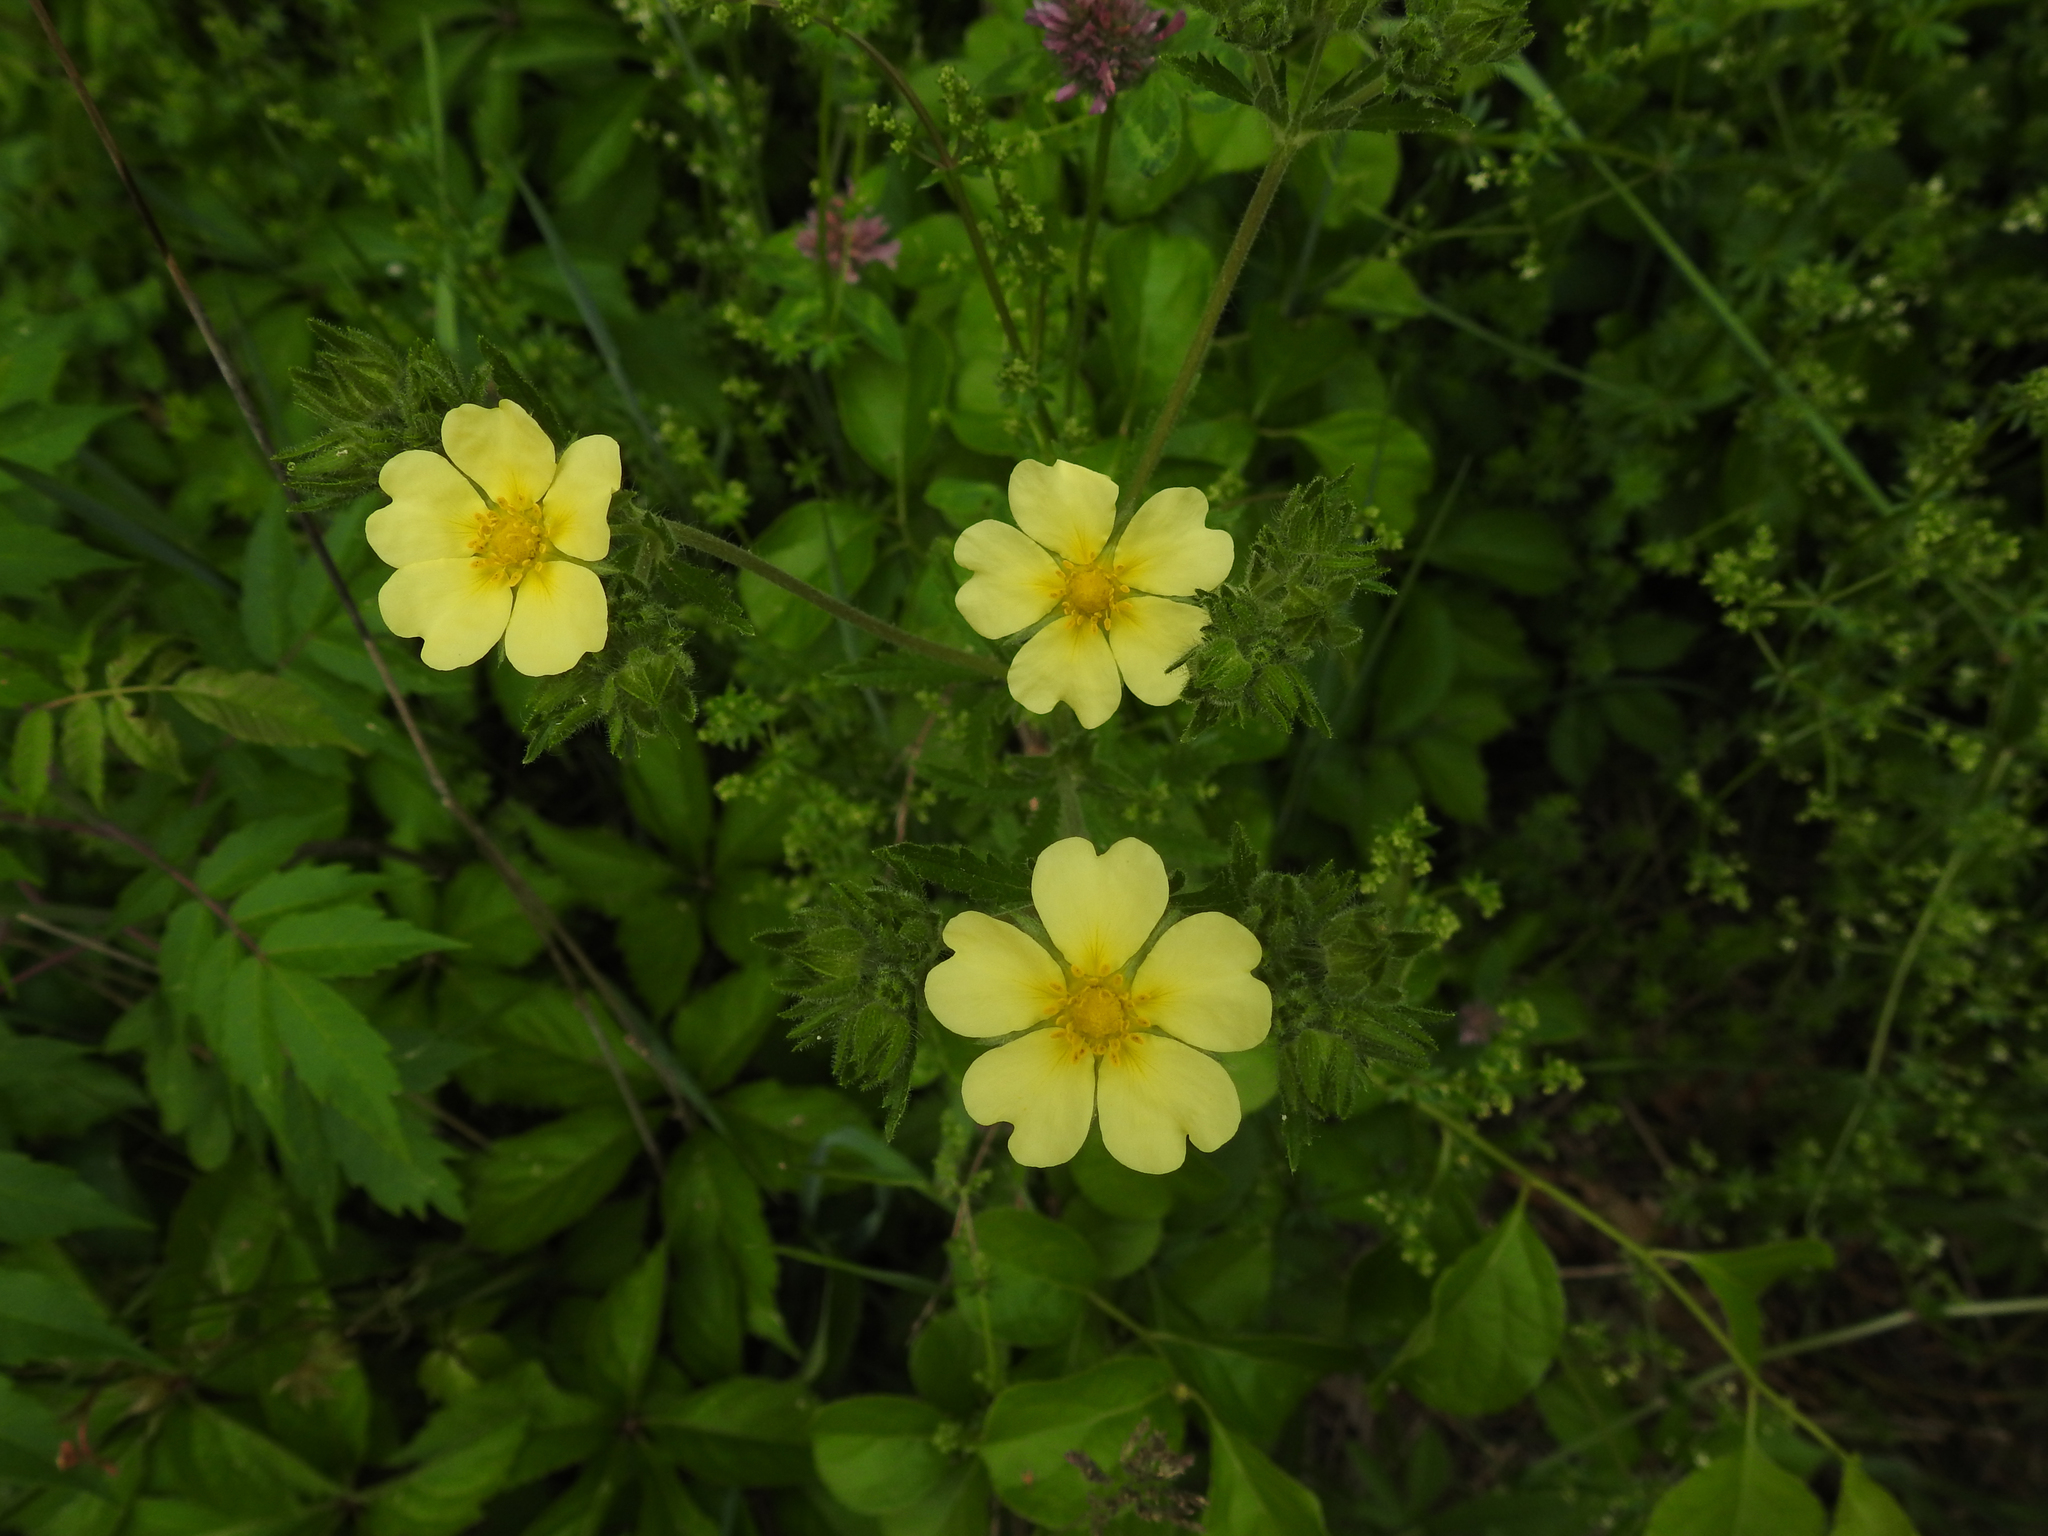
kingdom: Plantae
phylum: Tracheophyta
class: Magnoliopsida
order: Rosales
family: Rosaceae
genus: Potentilla
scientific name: Potentilla recta
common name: Sulphur cinquefoil
